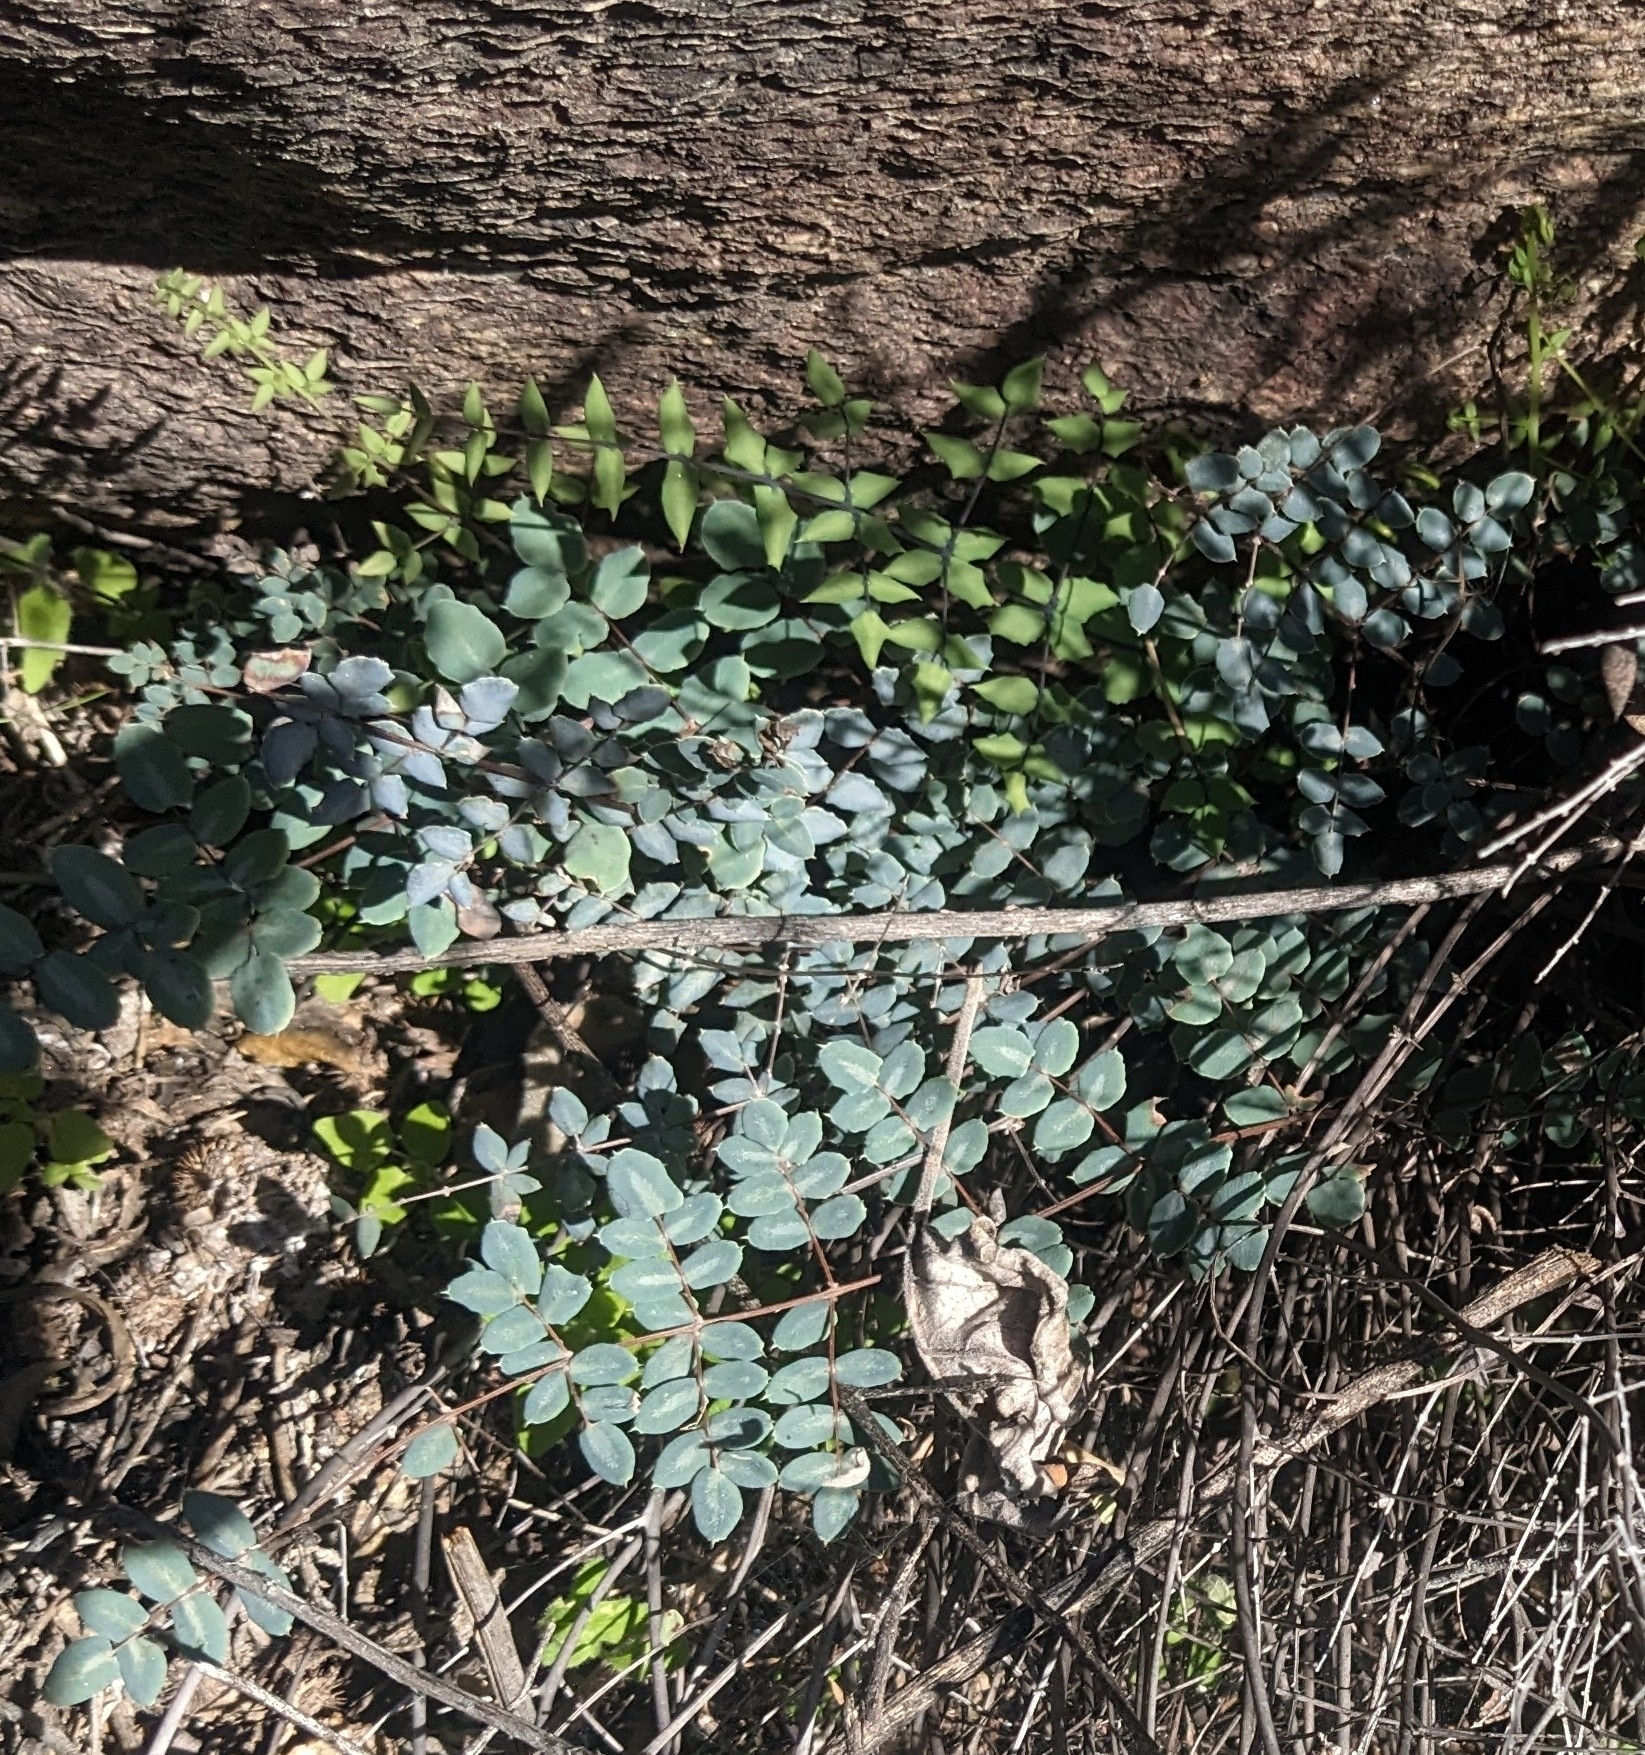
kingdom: Plantae
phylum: Tracheophyta
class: Polypodiopsida
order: Polypodiales
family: Pteridaceae
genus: Pellaea
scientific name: Pellaea truncata
